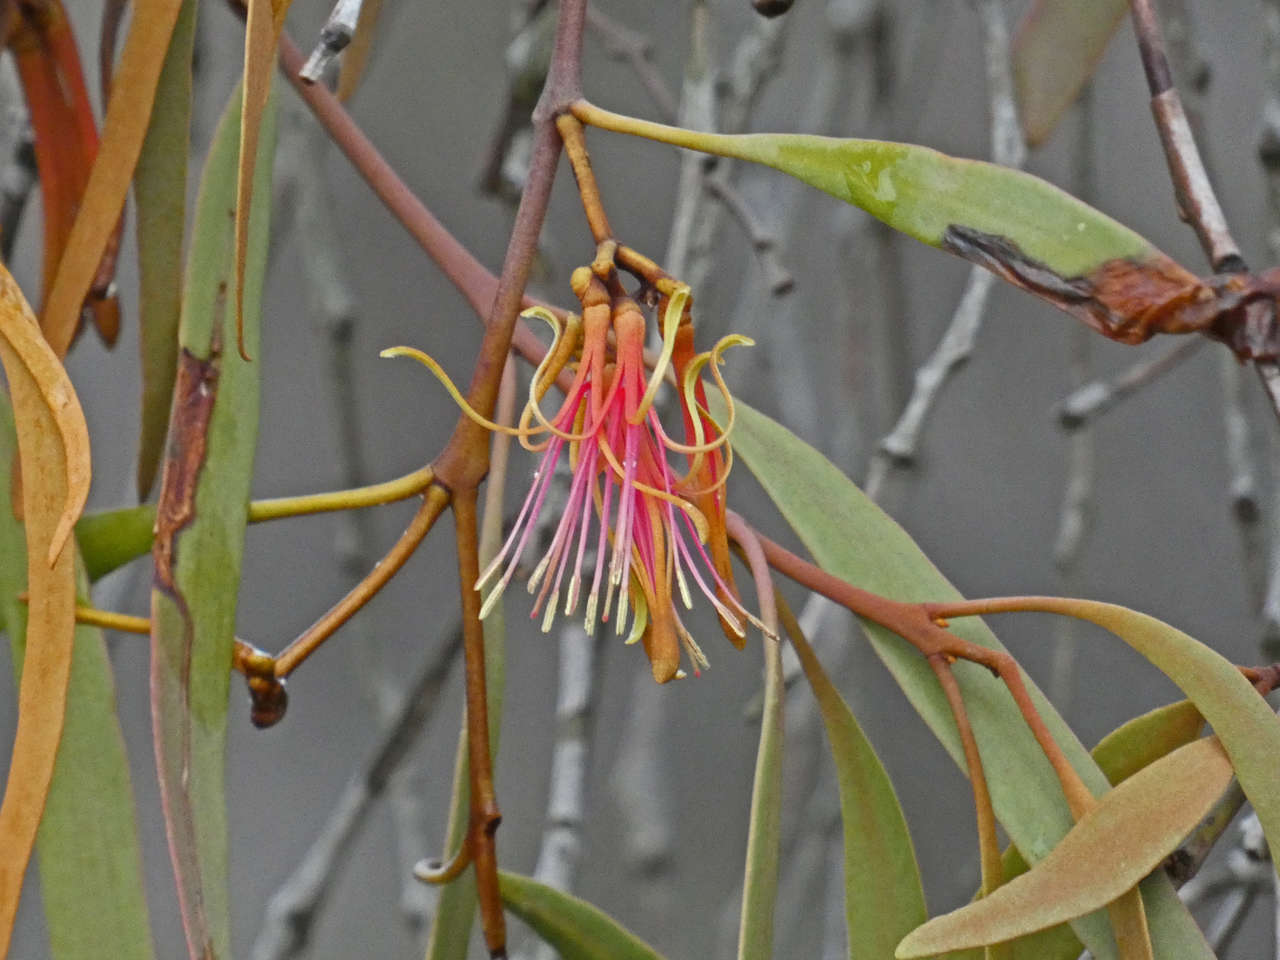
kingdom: Plantae
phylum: Tracheophyta
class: Magnoliopsida
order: Santalales
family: Loranthaceae
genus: Amyema
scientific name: Amyema pendula
